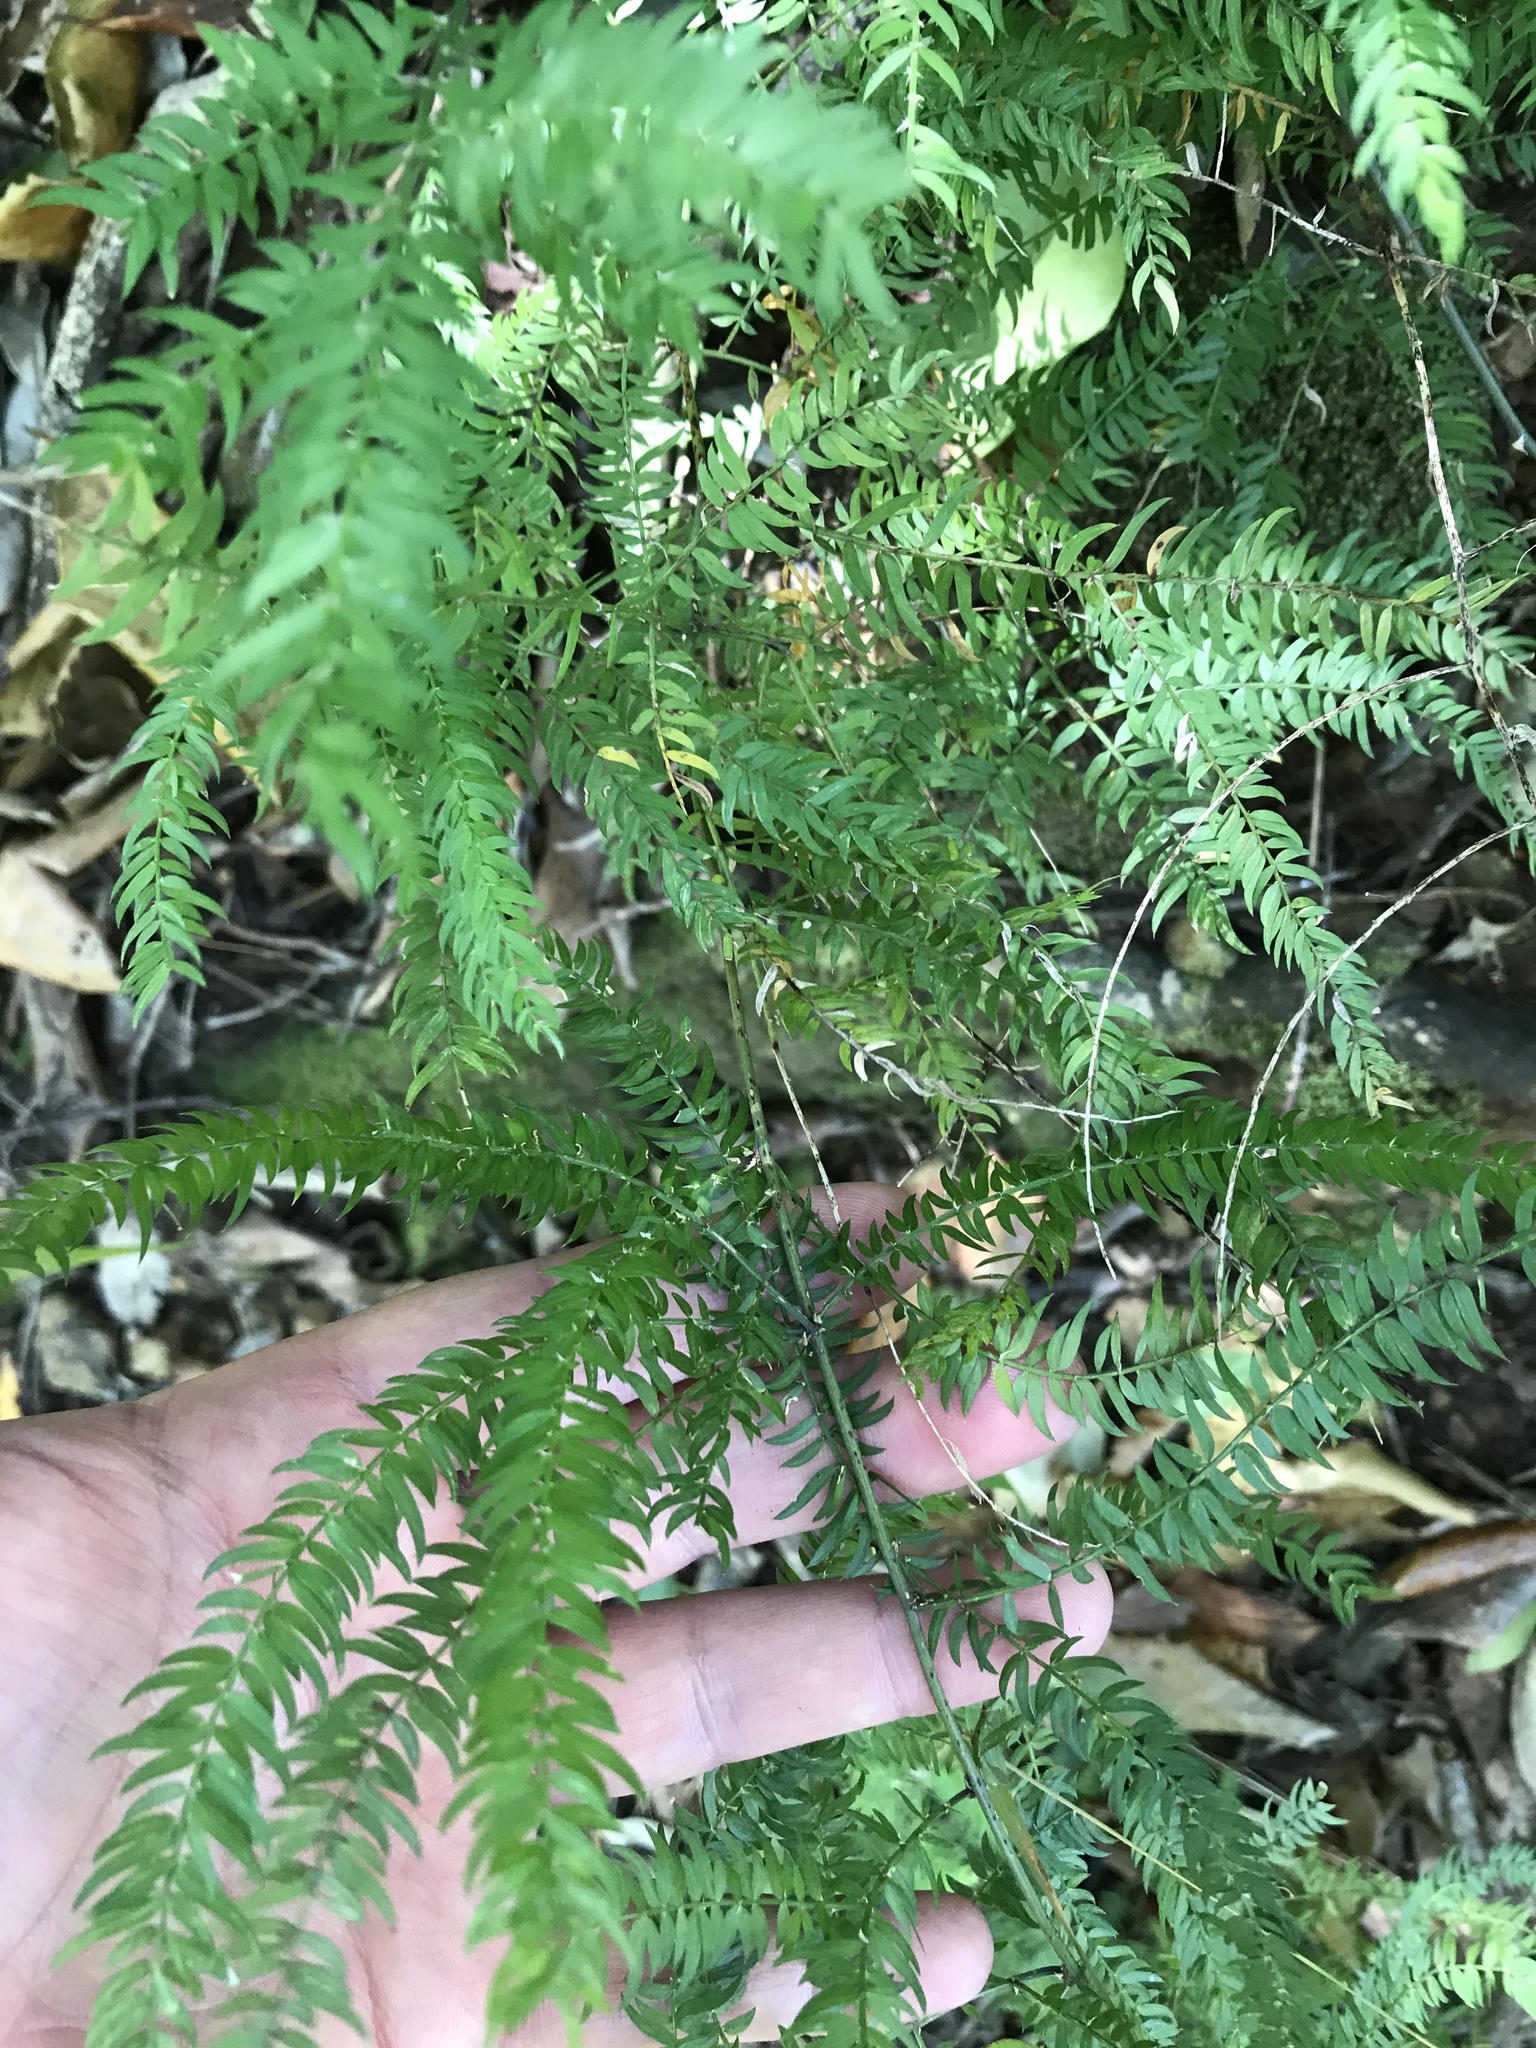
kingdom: Plantae
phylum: Tracheophyta
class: Liliopsida
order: Asparagales
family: Asparagaceae
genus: Asparagus
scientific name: Asparagus scandens
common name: Asparagus-fern
